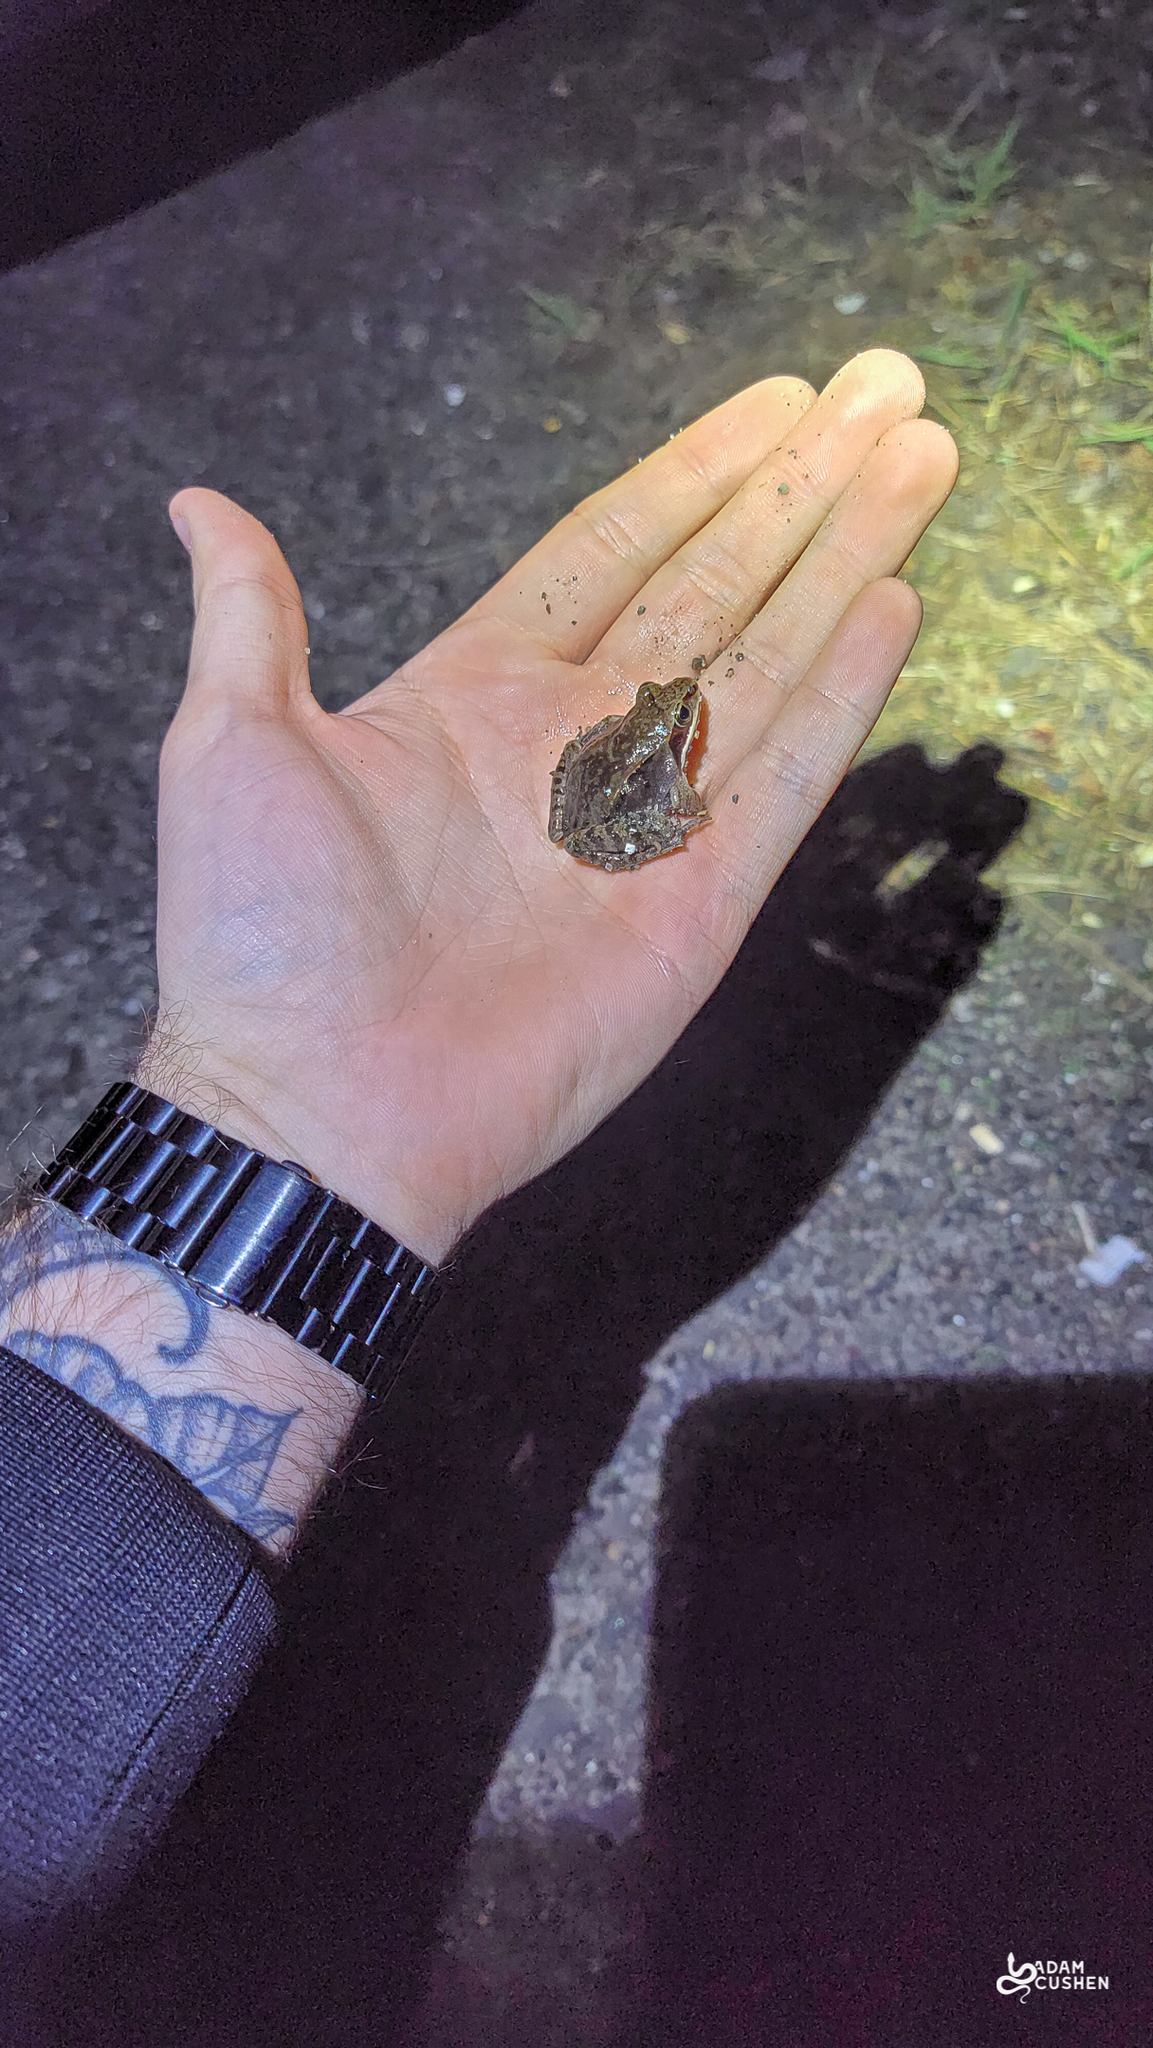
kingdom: Animalia
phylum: Chordata
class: Amphibia
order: Anura
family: Ranidae
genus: Lithobates
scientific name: Lithobates sylvaticus
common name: Wood frog
